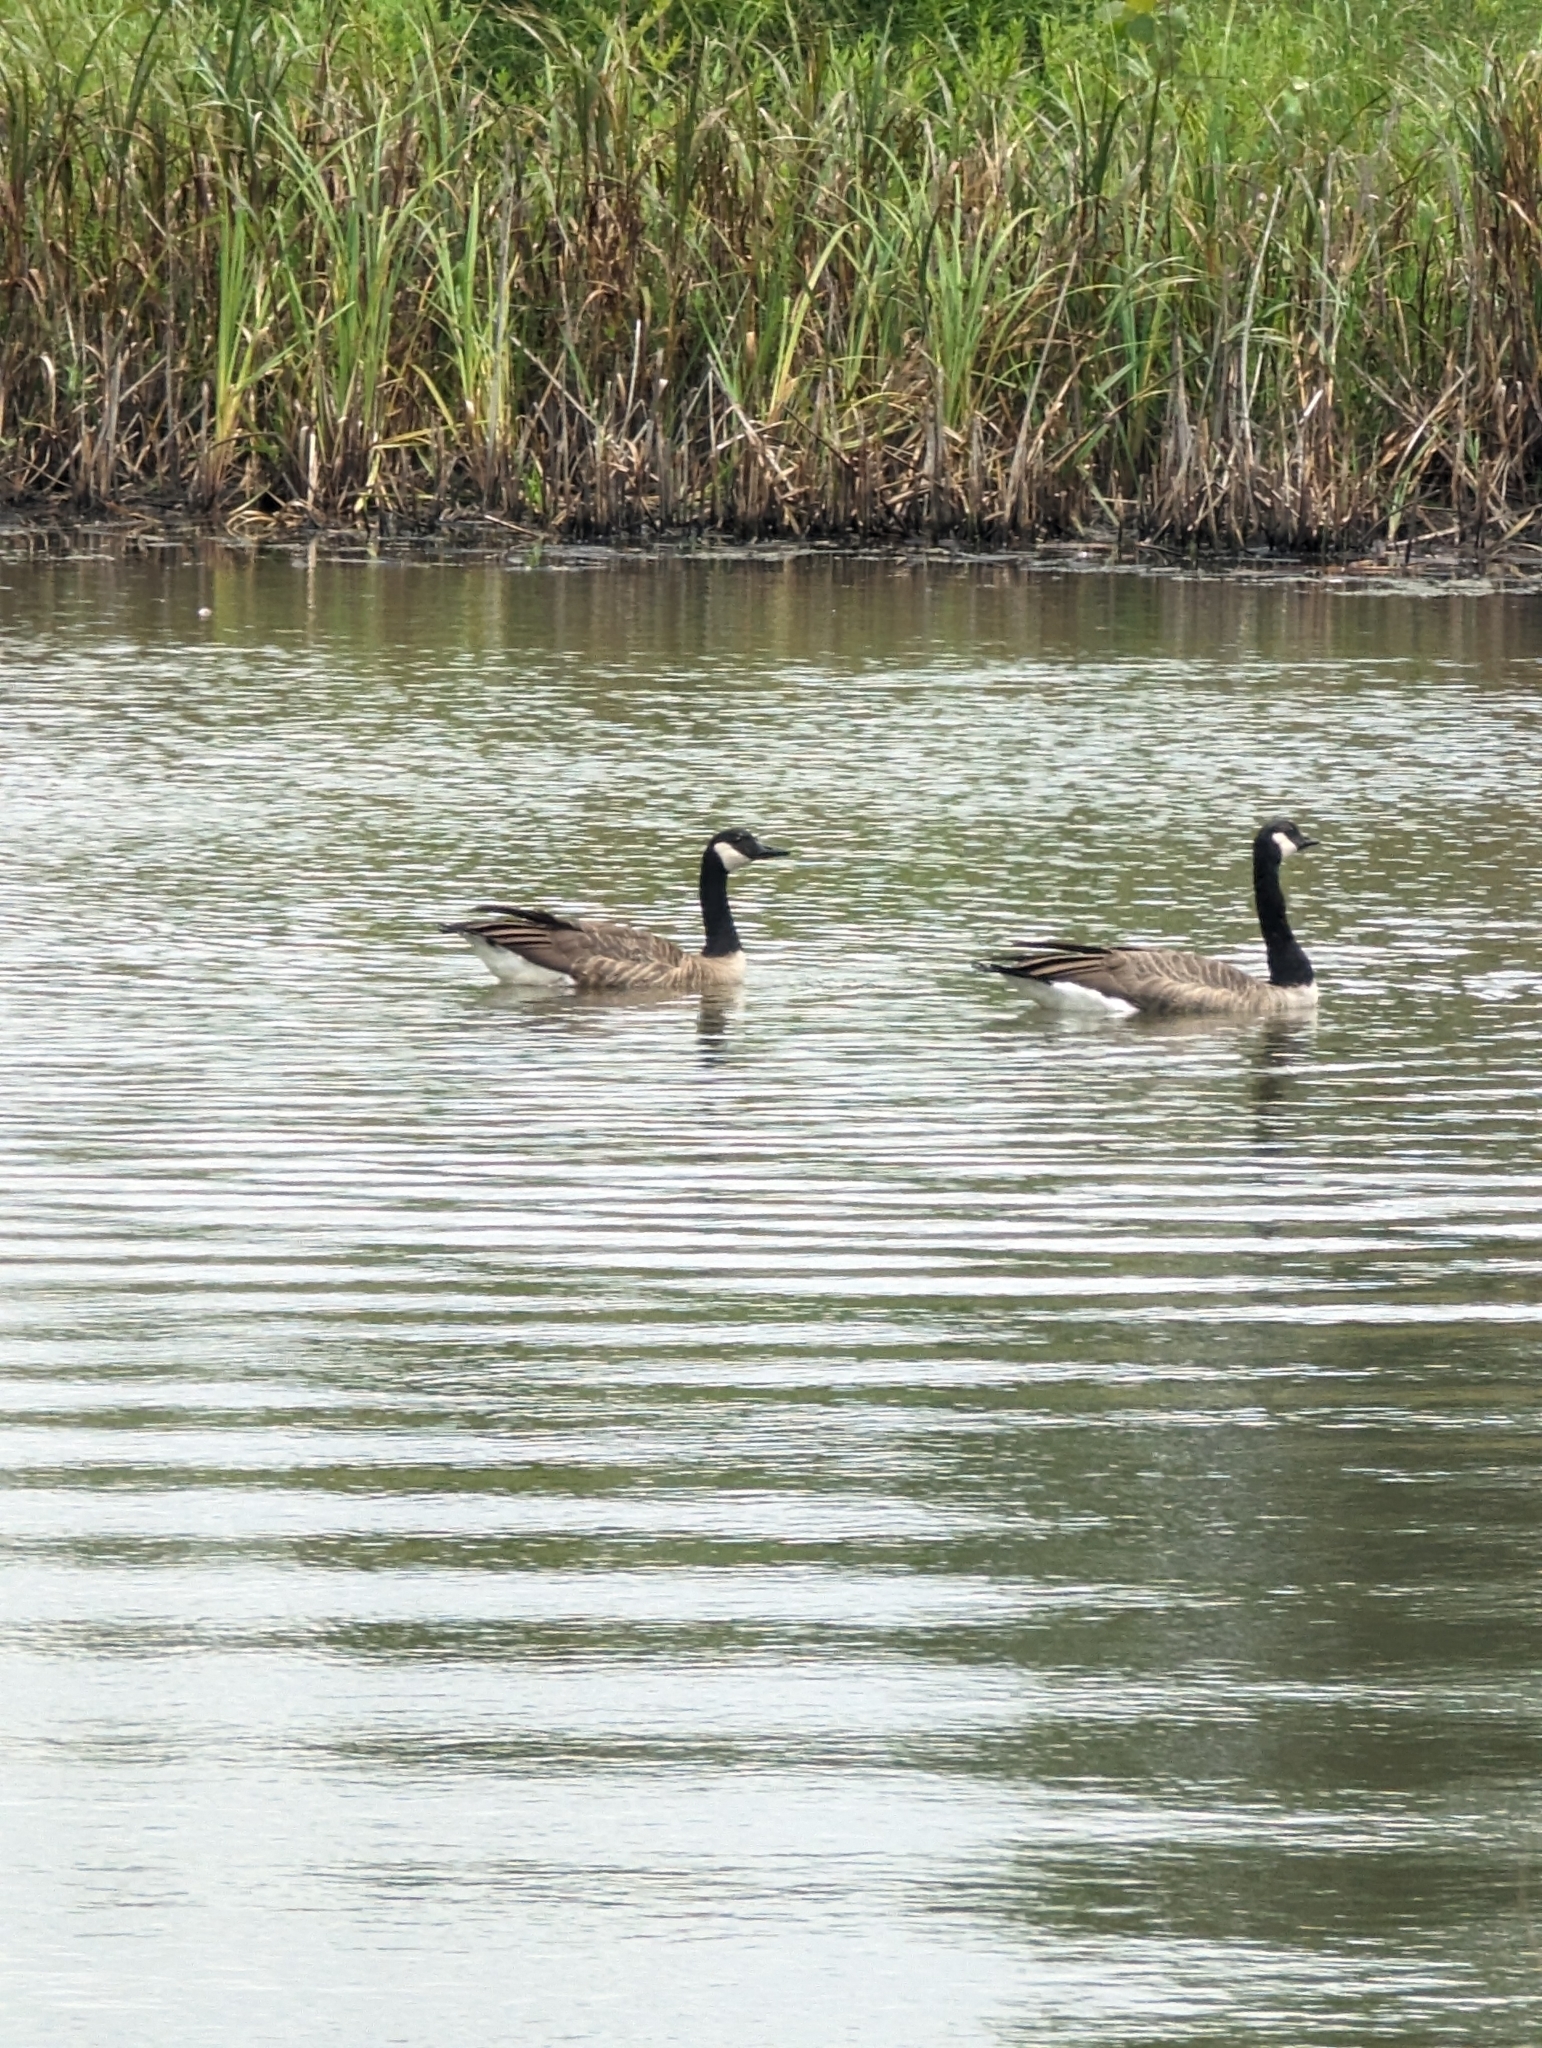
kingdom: Animalia
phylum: Chordata
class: Aves
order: Anseriformes
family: Anatidae
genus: Branta
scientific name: Branta canadensis
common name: Canada goose
